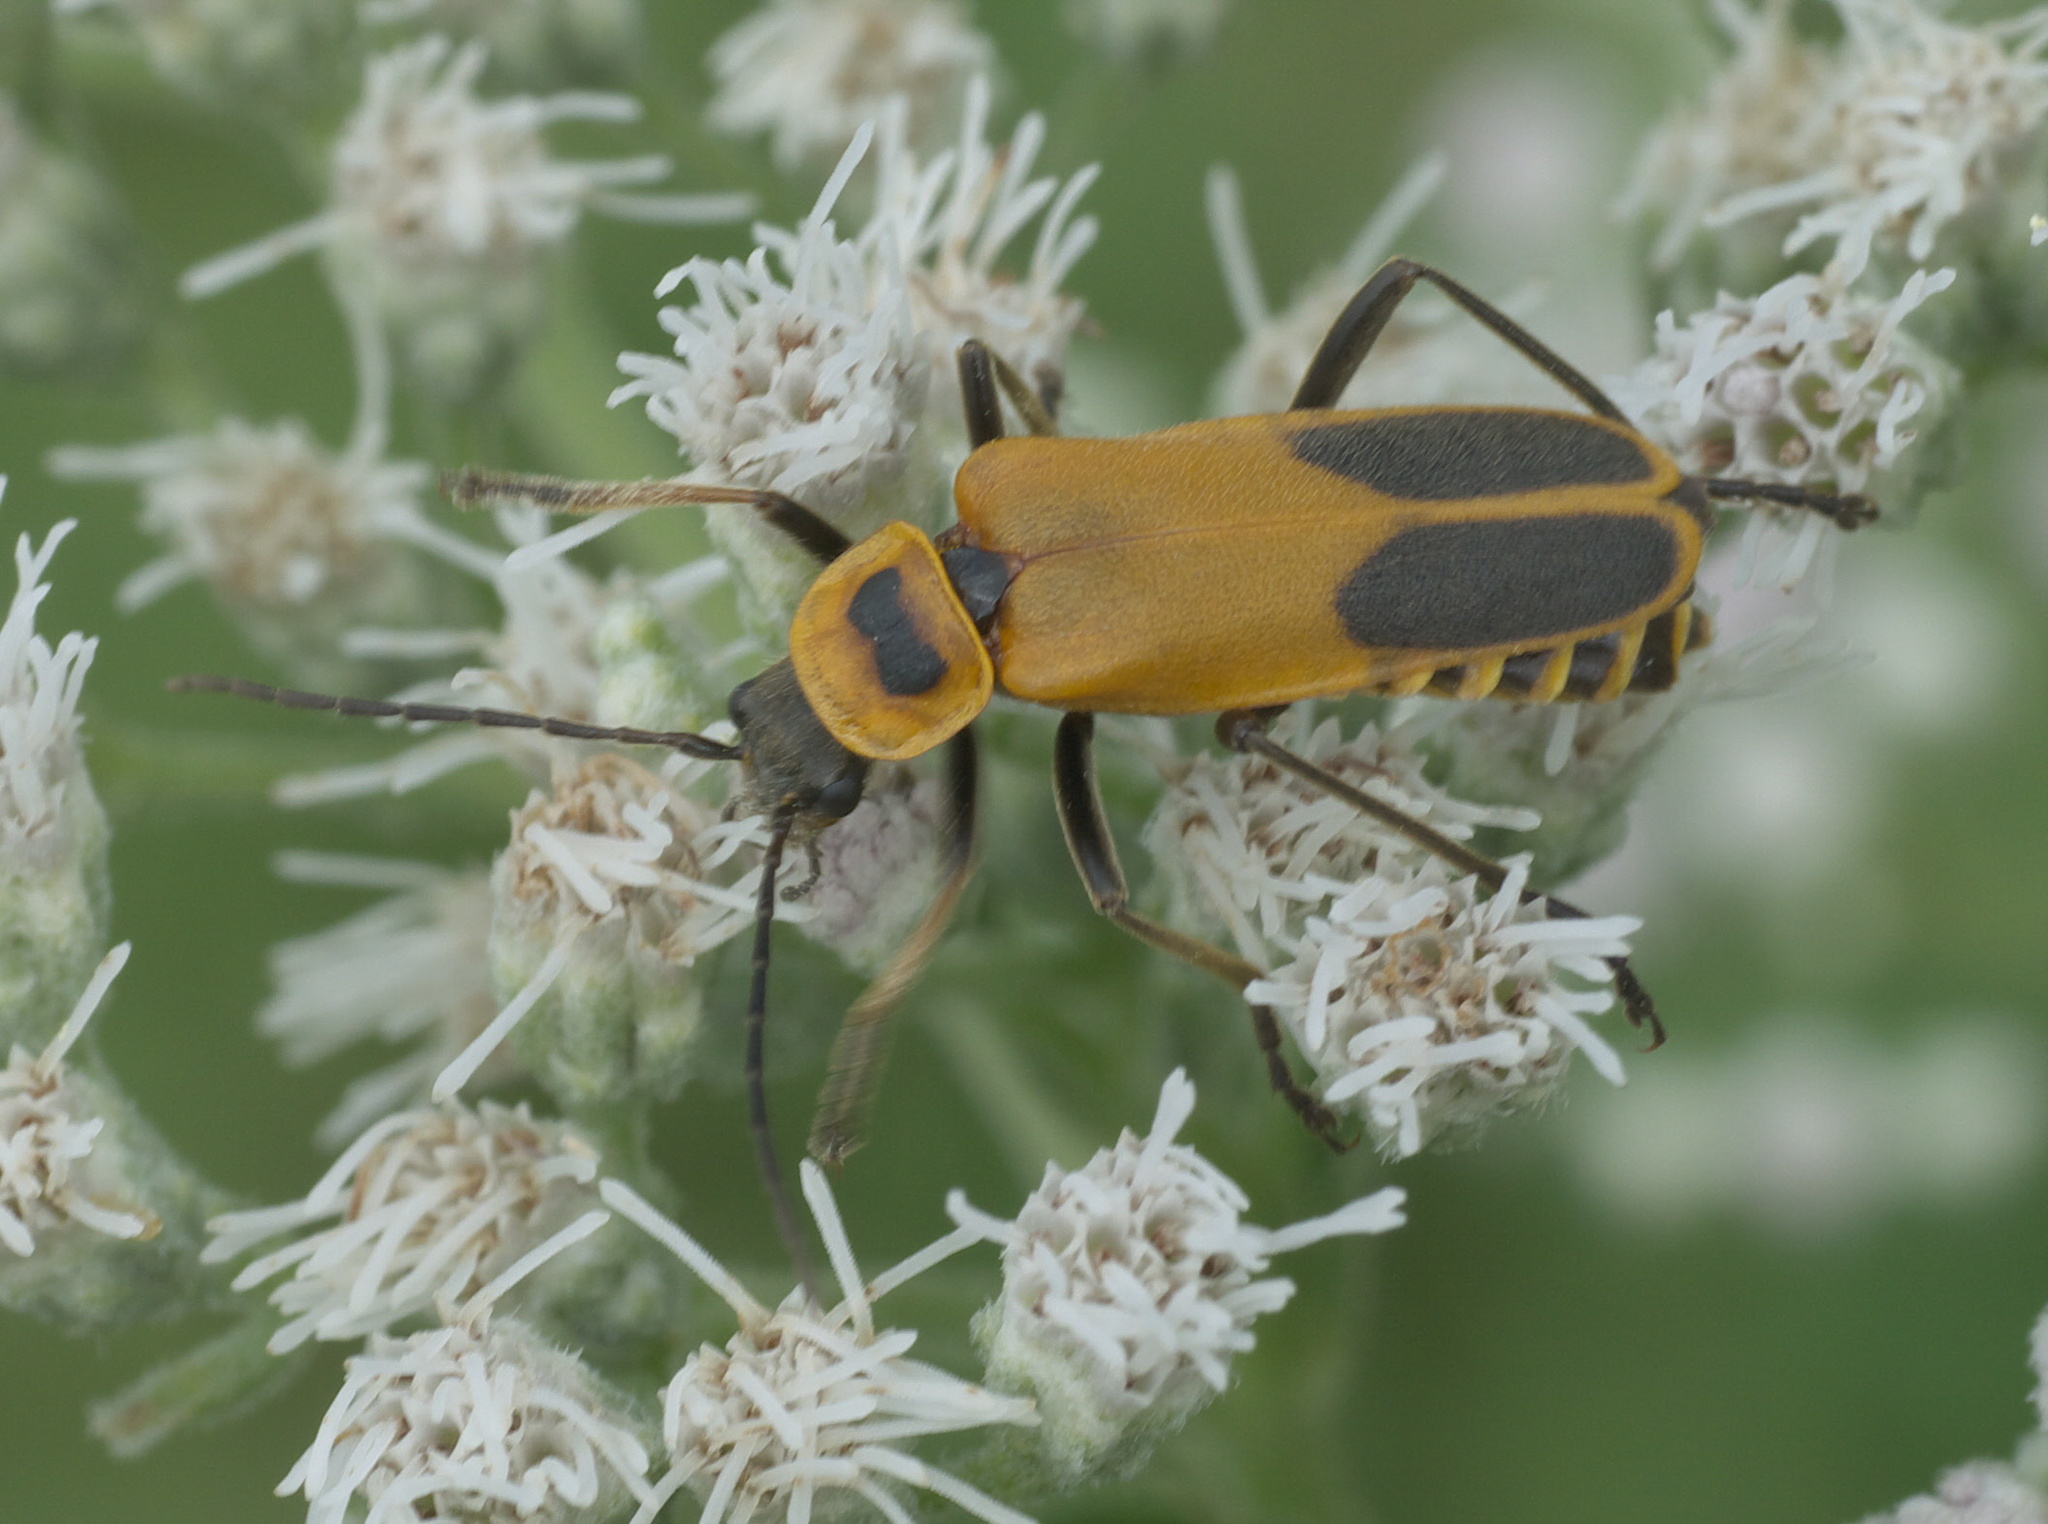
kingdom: Animalia
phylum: Arthropoda
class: Insecta
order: Coleoptera
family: Cantharidae
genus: Chauliognathus
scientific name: Chauliognathus pensylvanicus
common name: Goldenrod soldier beetle
